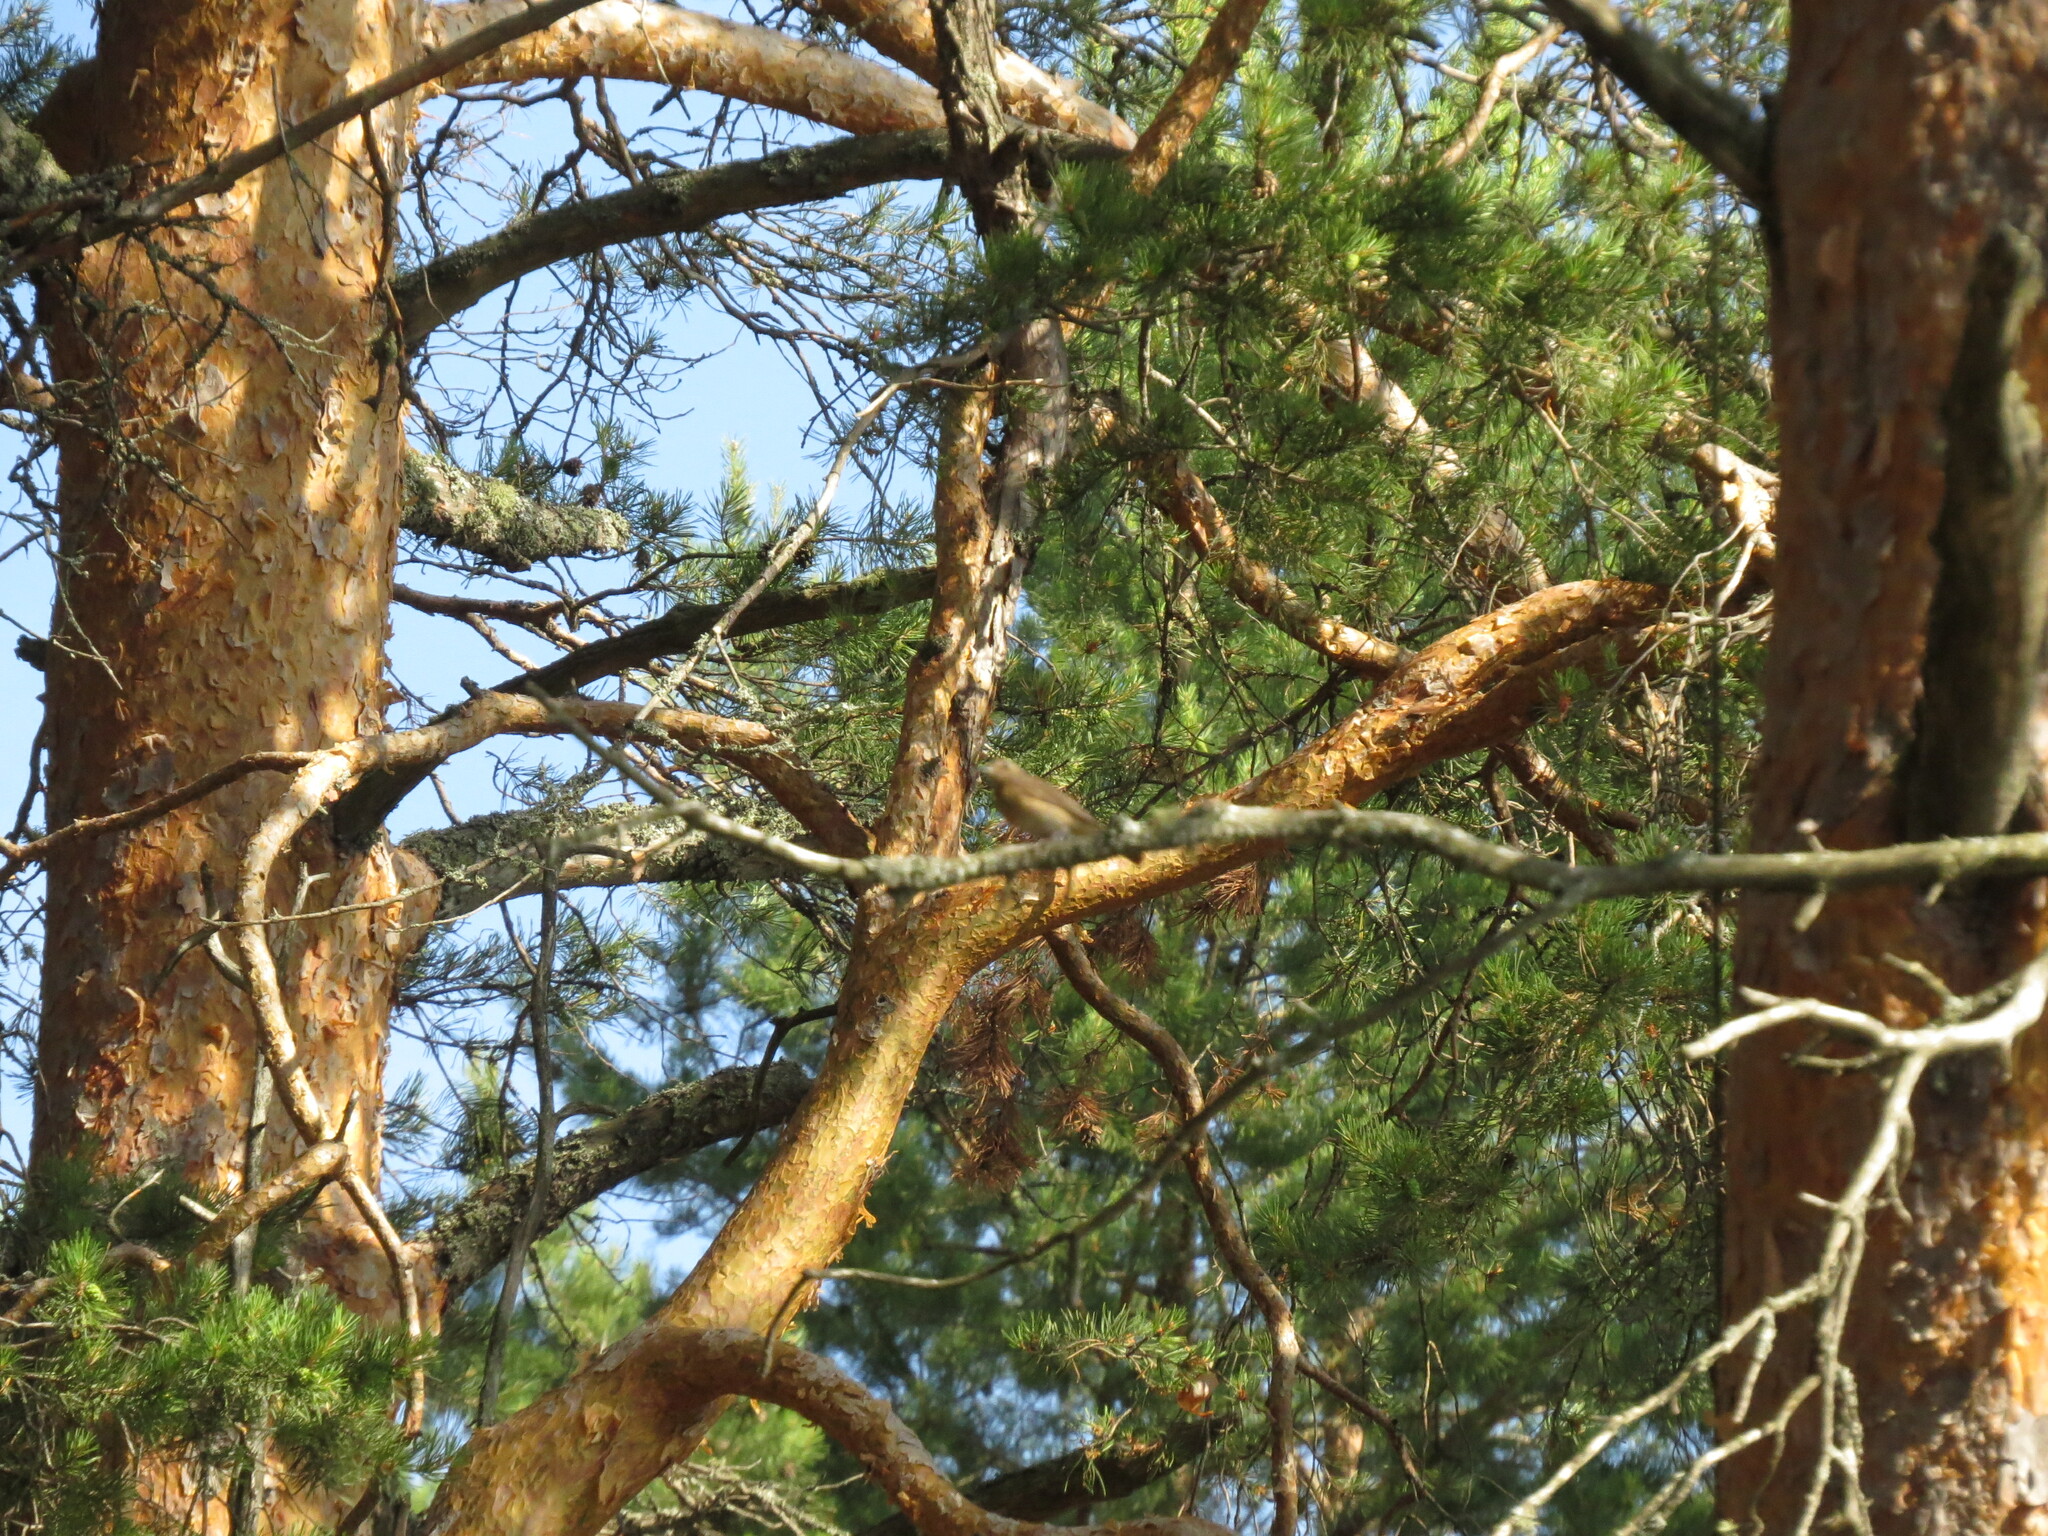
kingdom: Animalia
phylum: Chordata
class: Aves
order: Passeriformes
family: Muscicapidae
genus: Phoenicurus
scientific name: Phoenicurus phoenicurus
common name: Common redstart
